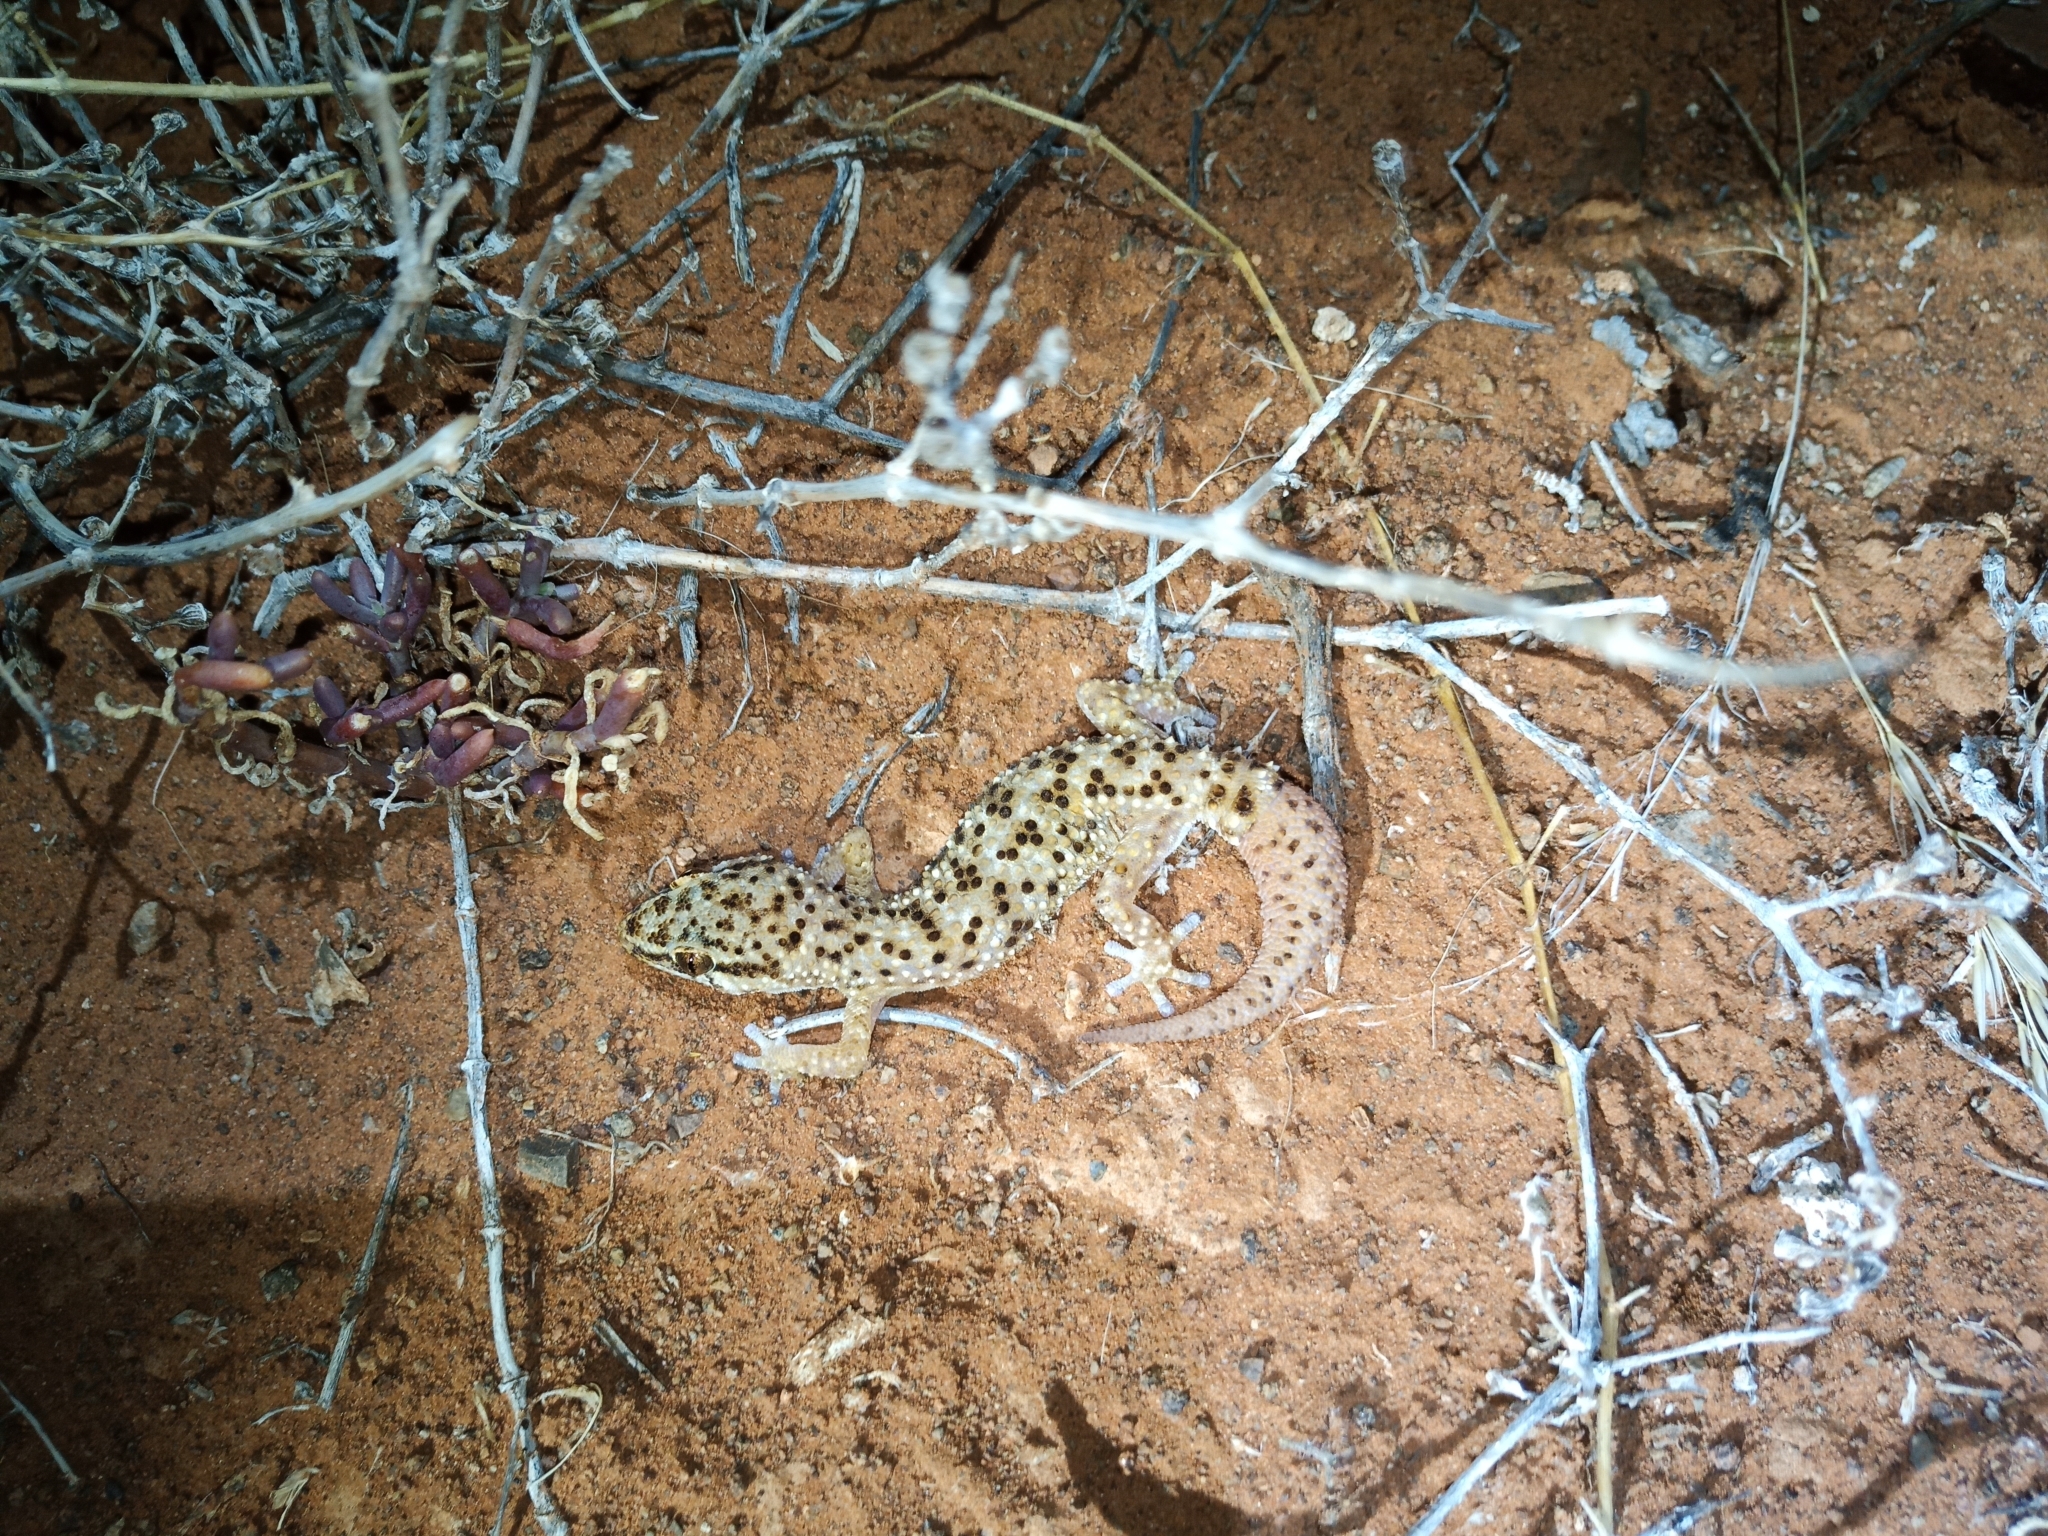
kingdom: Animalia
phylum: Chordata
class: Squamata
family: Gekkonidae
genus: Pachydactylus
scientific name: Pachydactylus capensis
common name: Cape gecko
